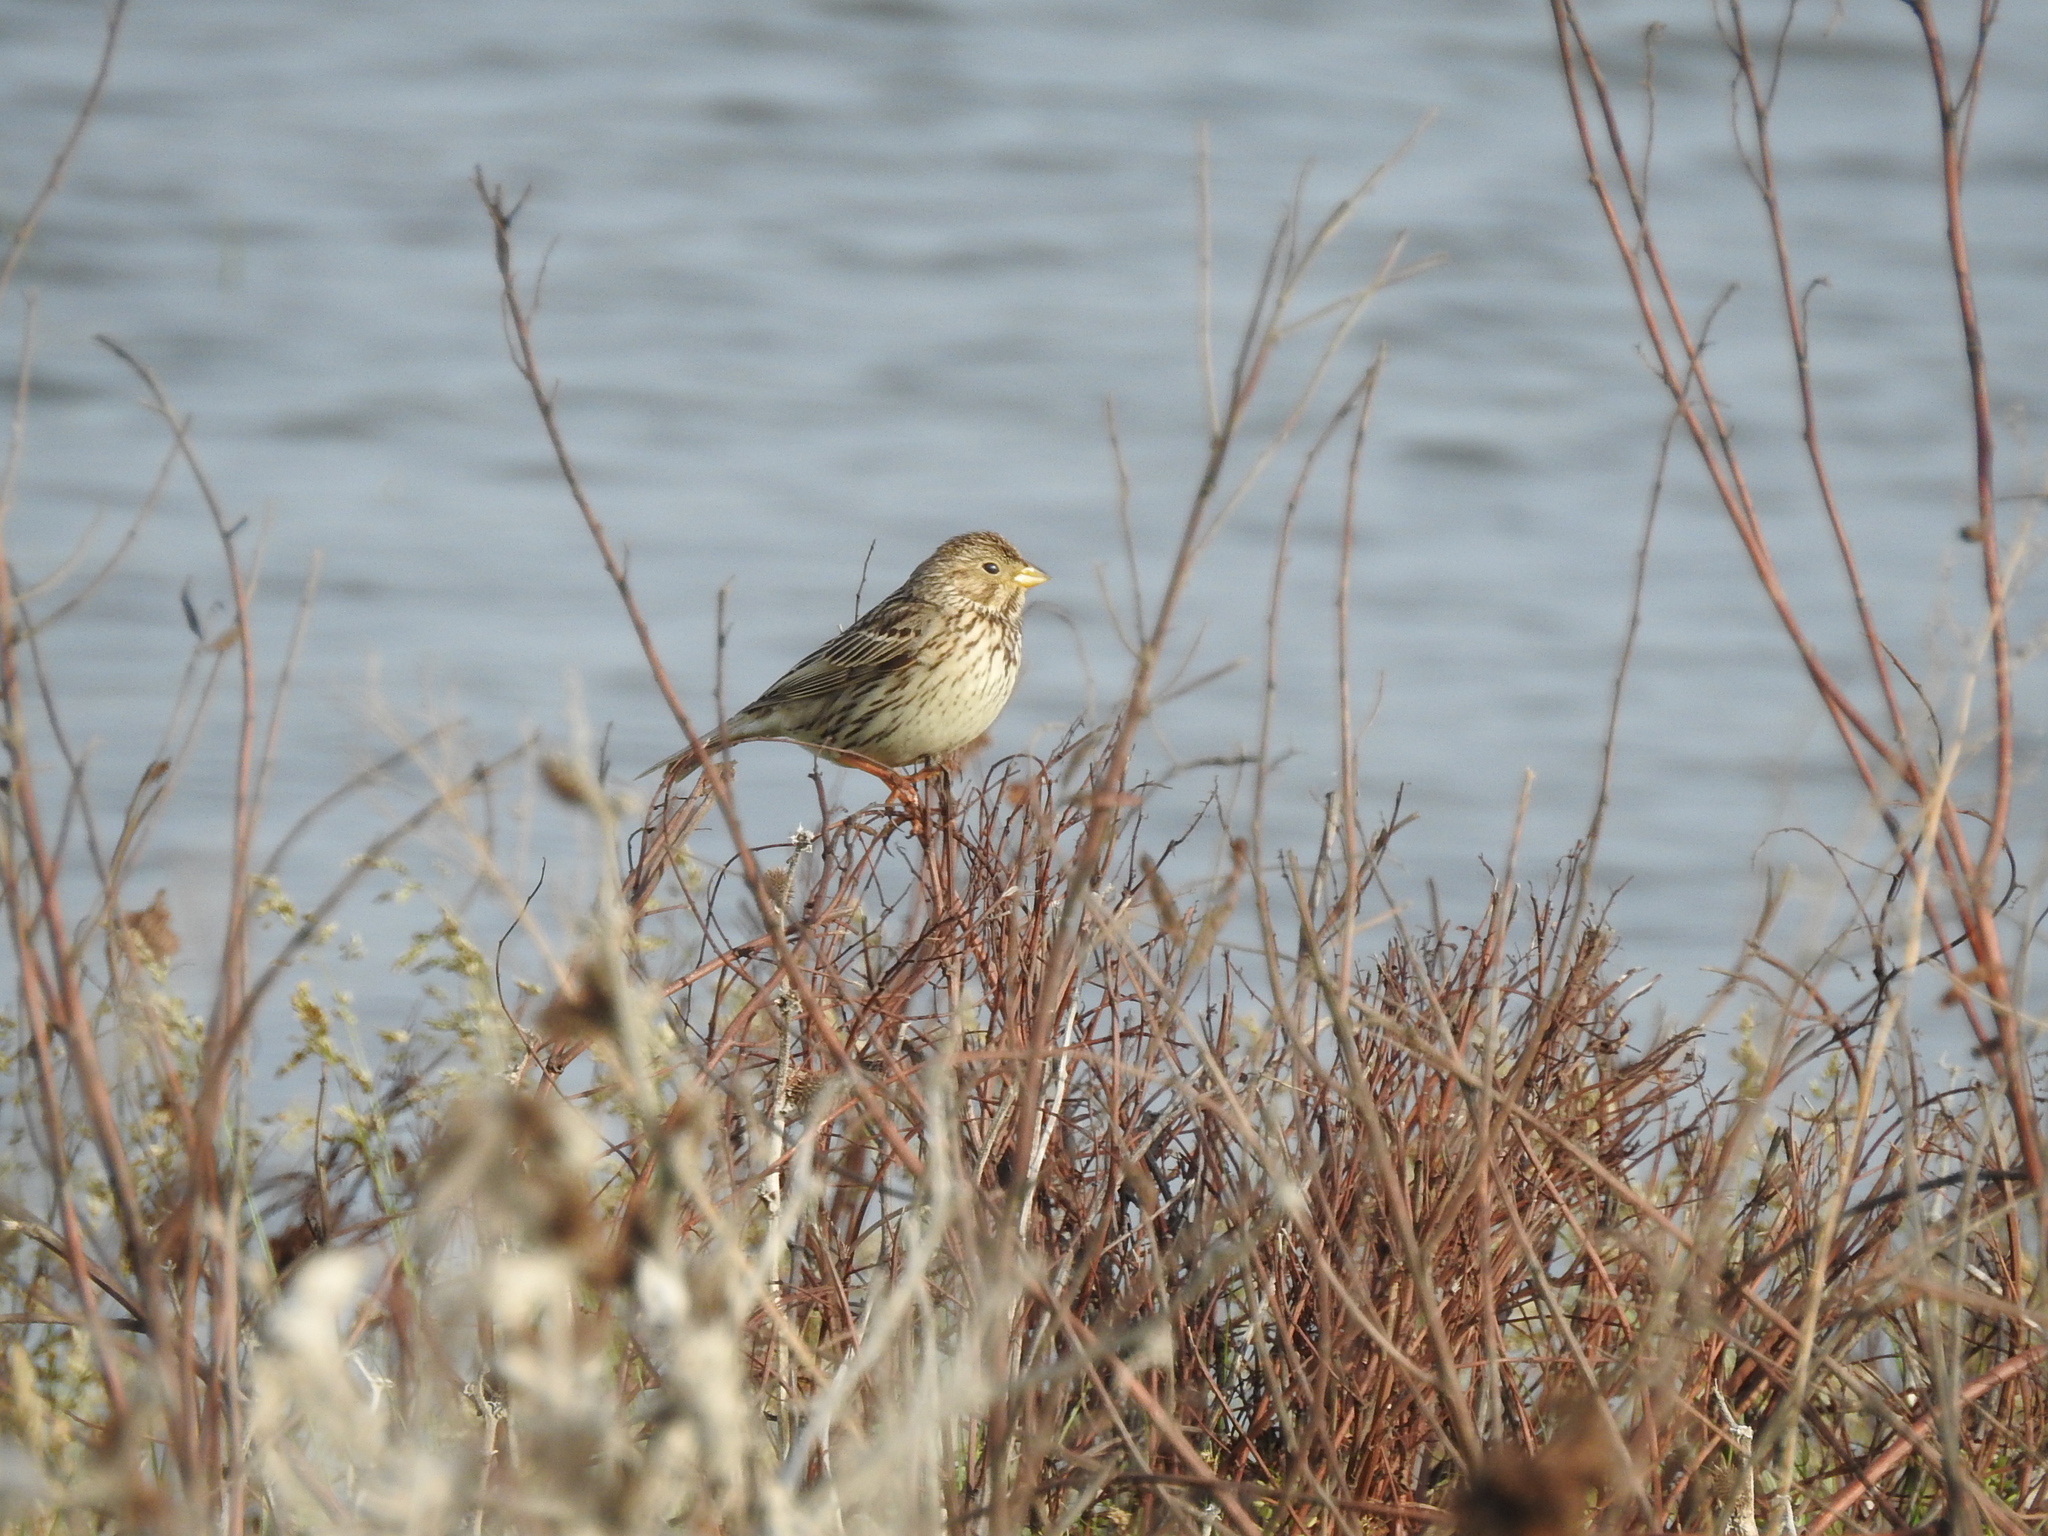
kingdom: Animalia
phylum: Chordata
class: Aves
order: Passeriformes
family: Emberizidae
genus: Emberiza
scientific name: Emberiza calandra
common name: Corn bunting
